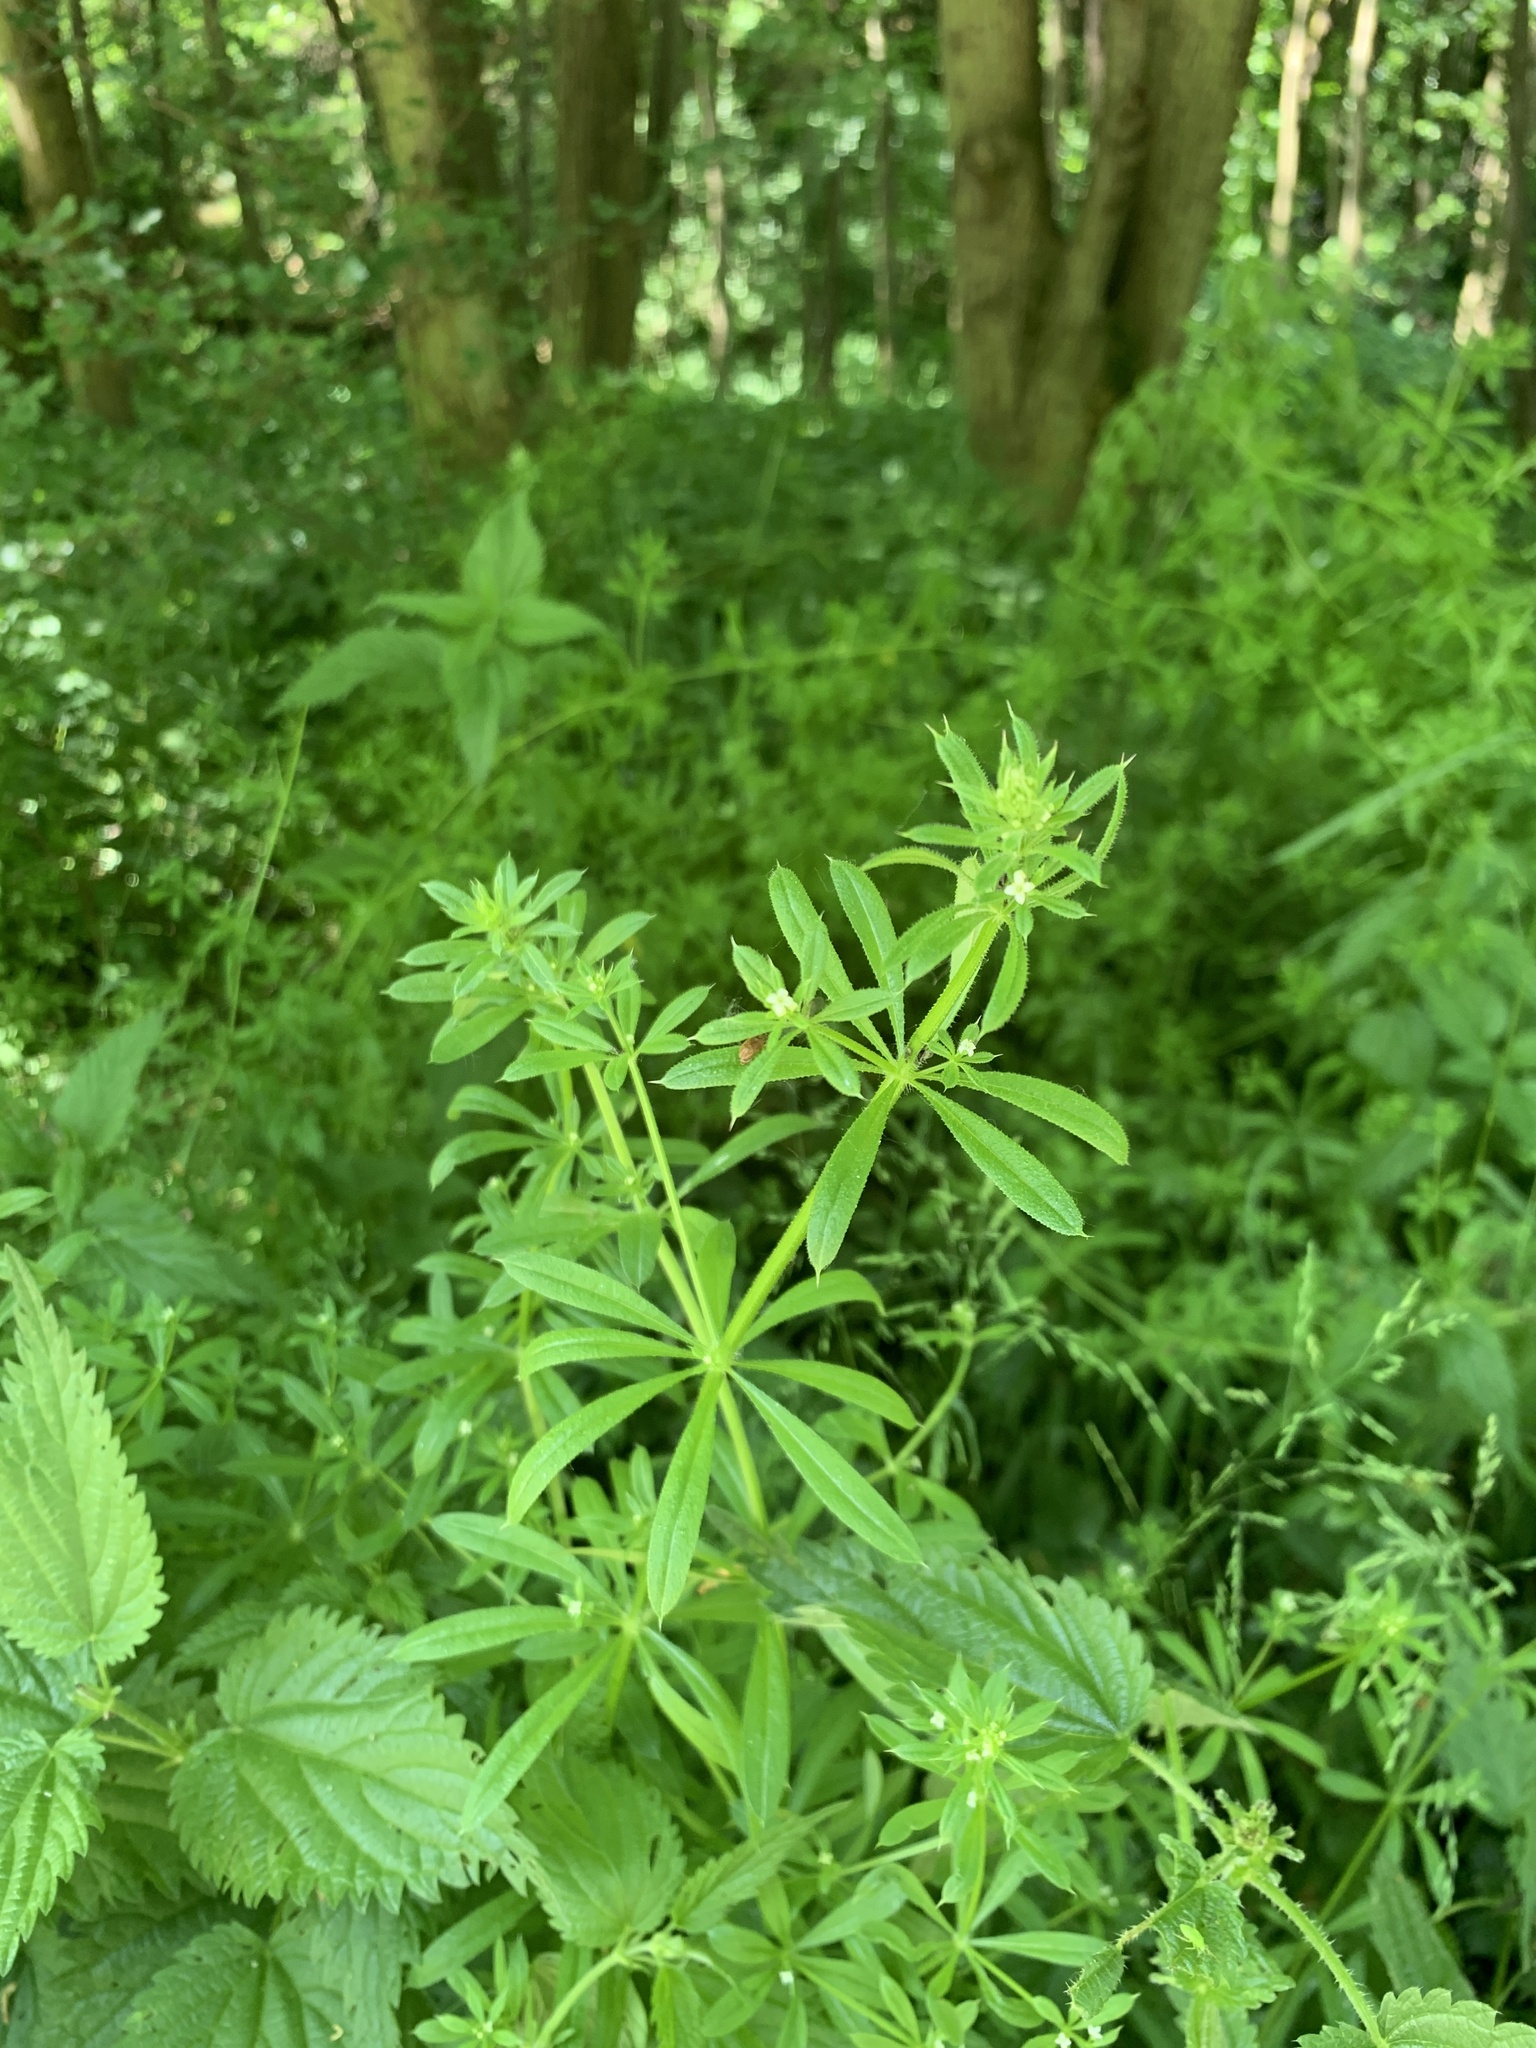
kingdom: Plantae
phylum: Tracheophyta
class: Magnoliopsida
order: Gentianales
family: Rubiaceae
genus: Galium
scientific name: Galium aparine
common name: Cleavers
